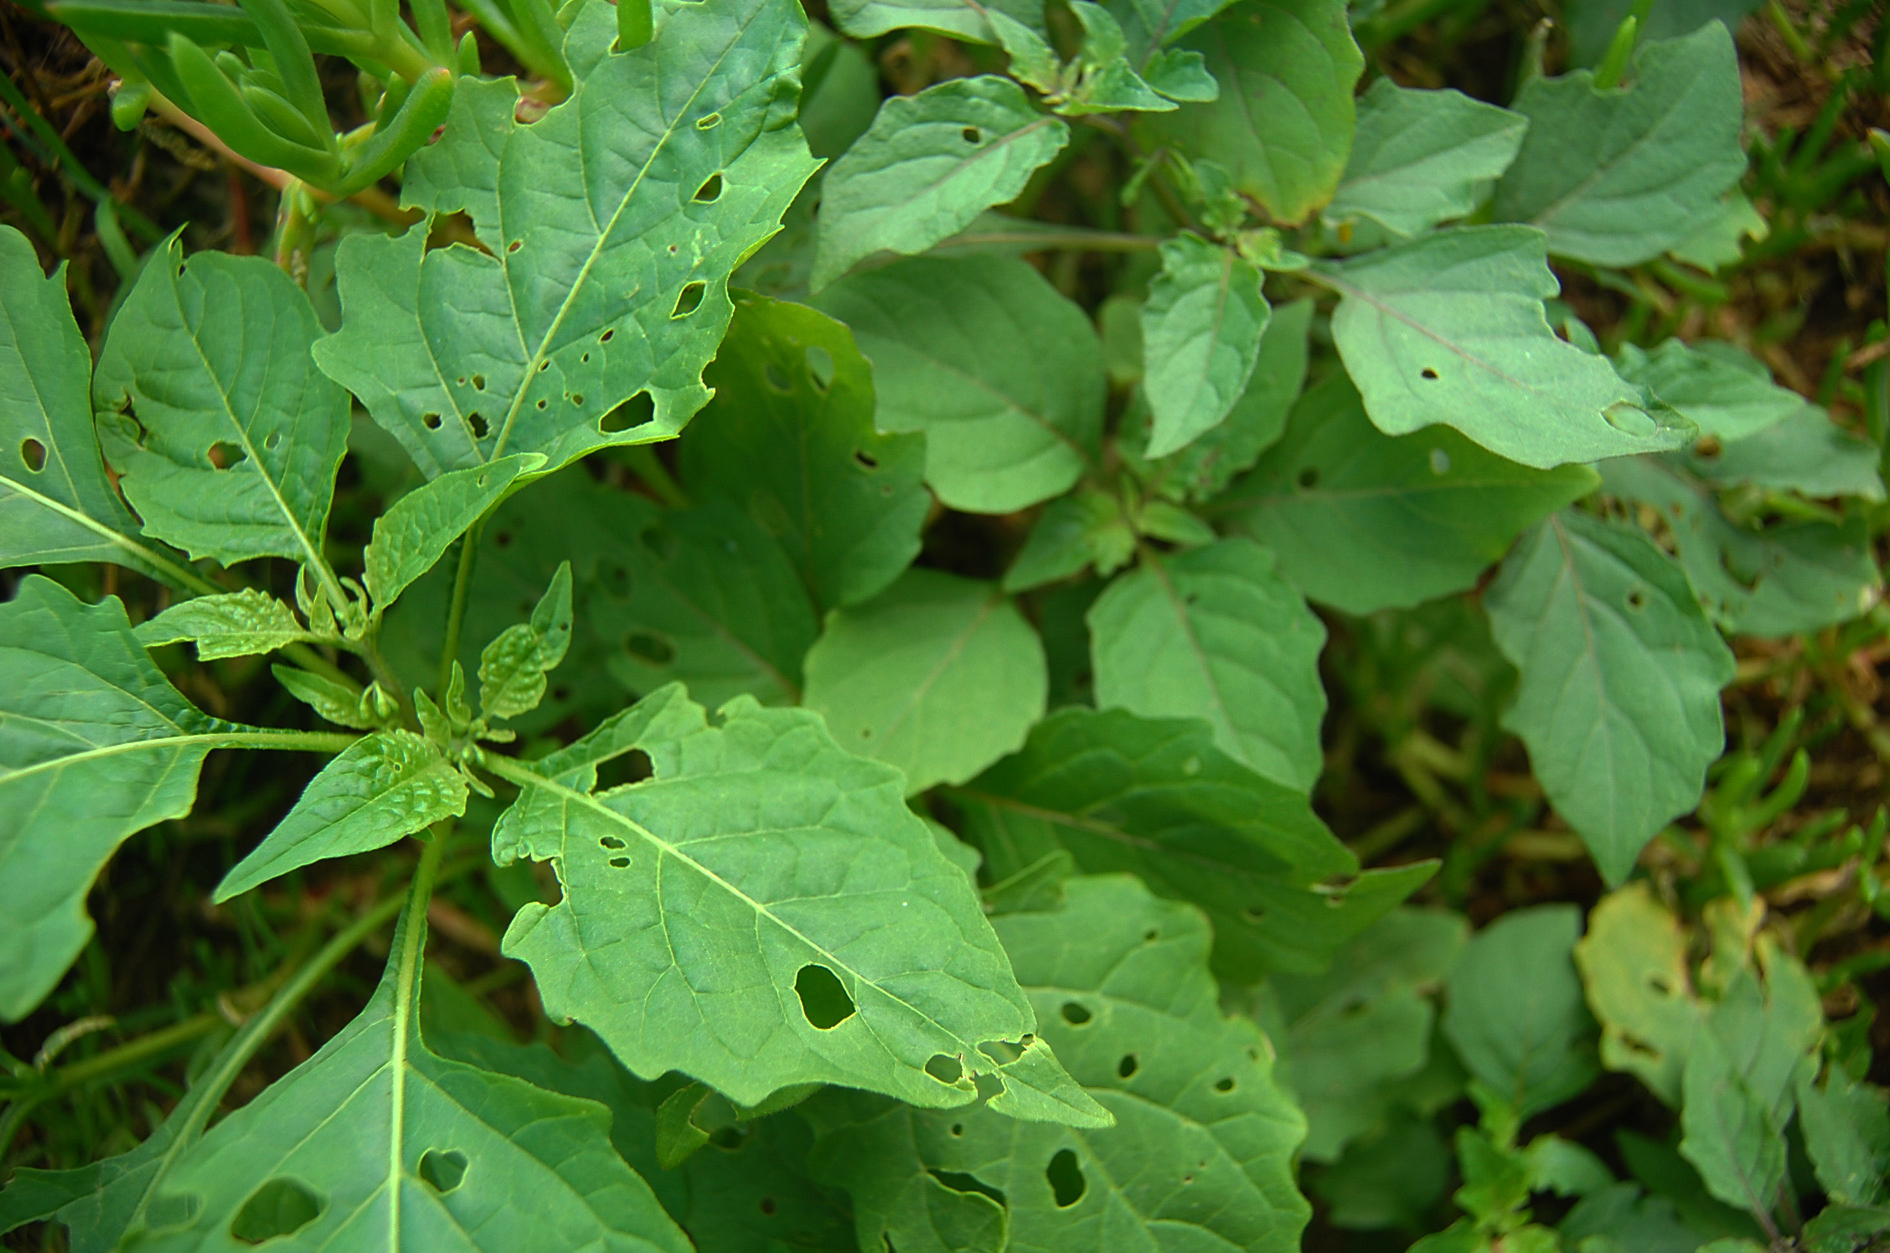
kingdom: Plantae
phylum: Tracheophyta
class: Magnoliopsida
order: Solanales
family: Solanaceae
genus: Solanum
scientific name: Solanum americanum
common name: American black nightshade
